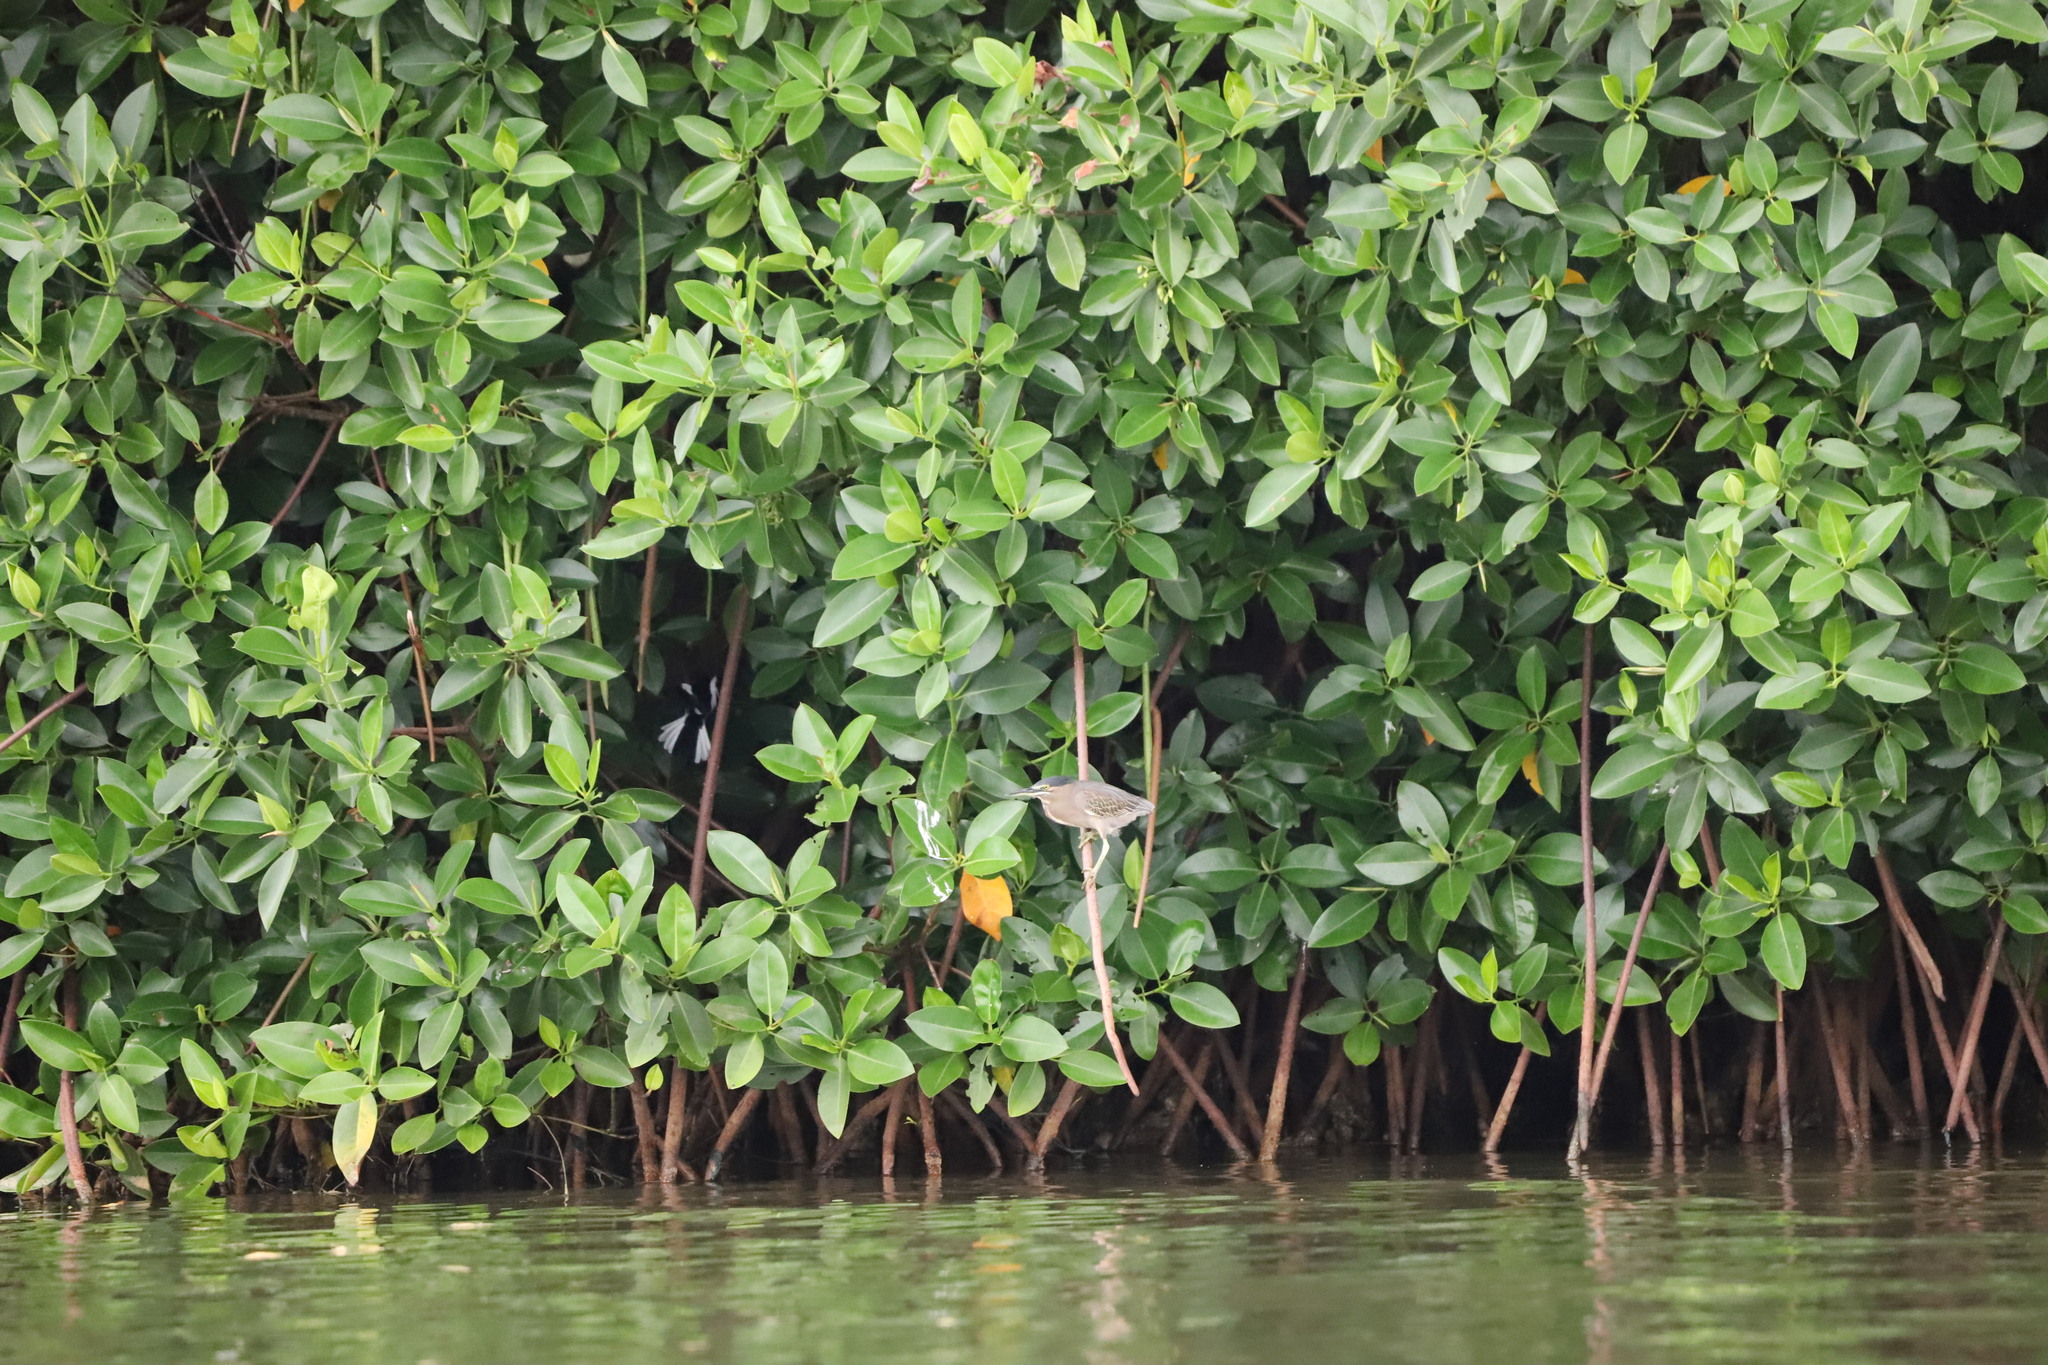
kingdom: Animalia
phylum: Chordata
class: Aves
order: Pelecaniformes
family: Ardeidae
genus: Butorides
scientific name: Butorides striata
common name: Striated heron
